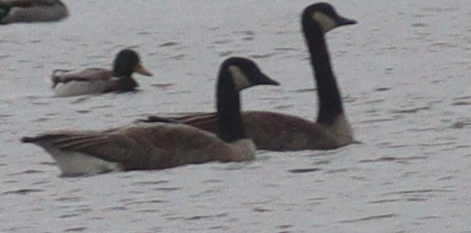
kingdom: Animalia
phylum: Chordata
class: Aves
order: Anseriformes
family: Anatidae
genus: Branta
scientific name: Branta canadensis
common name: Canada goose
